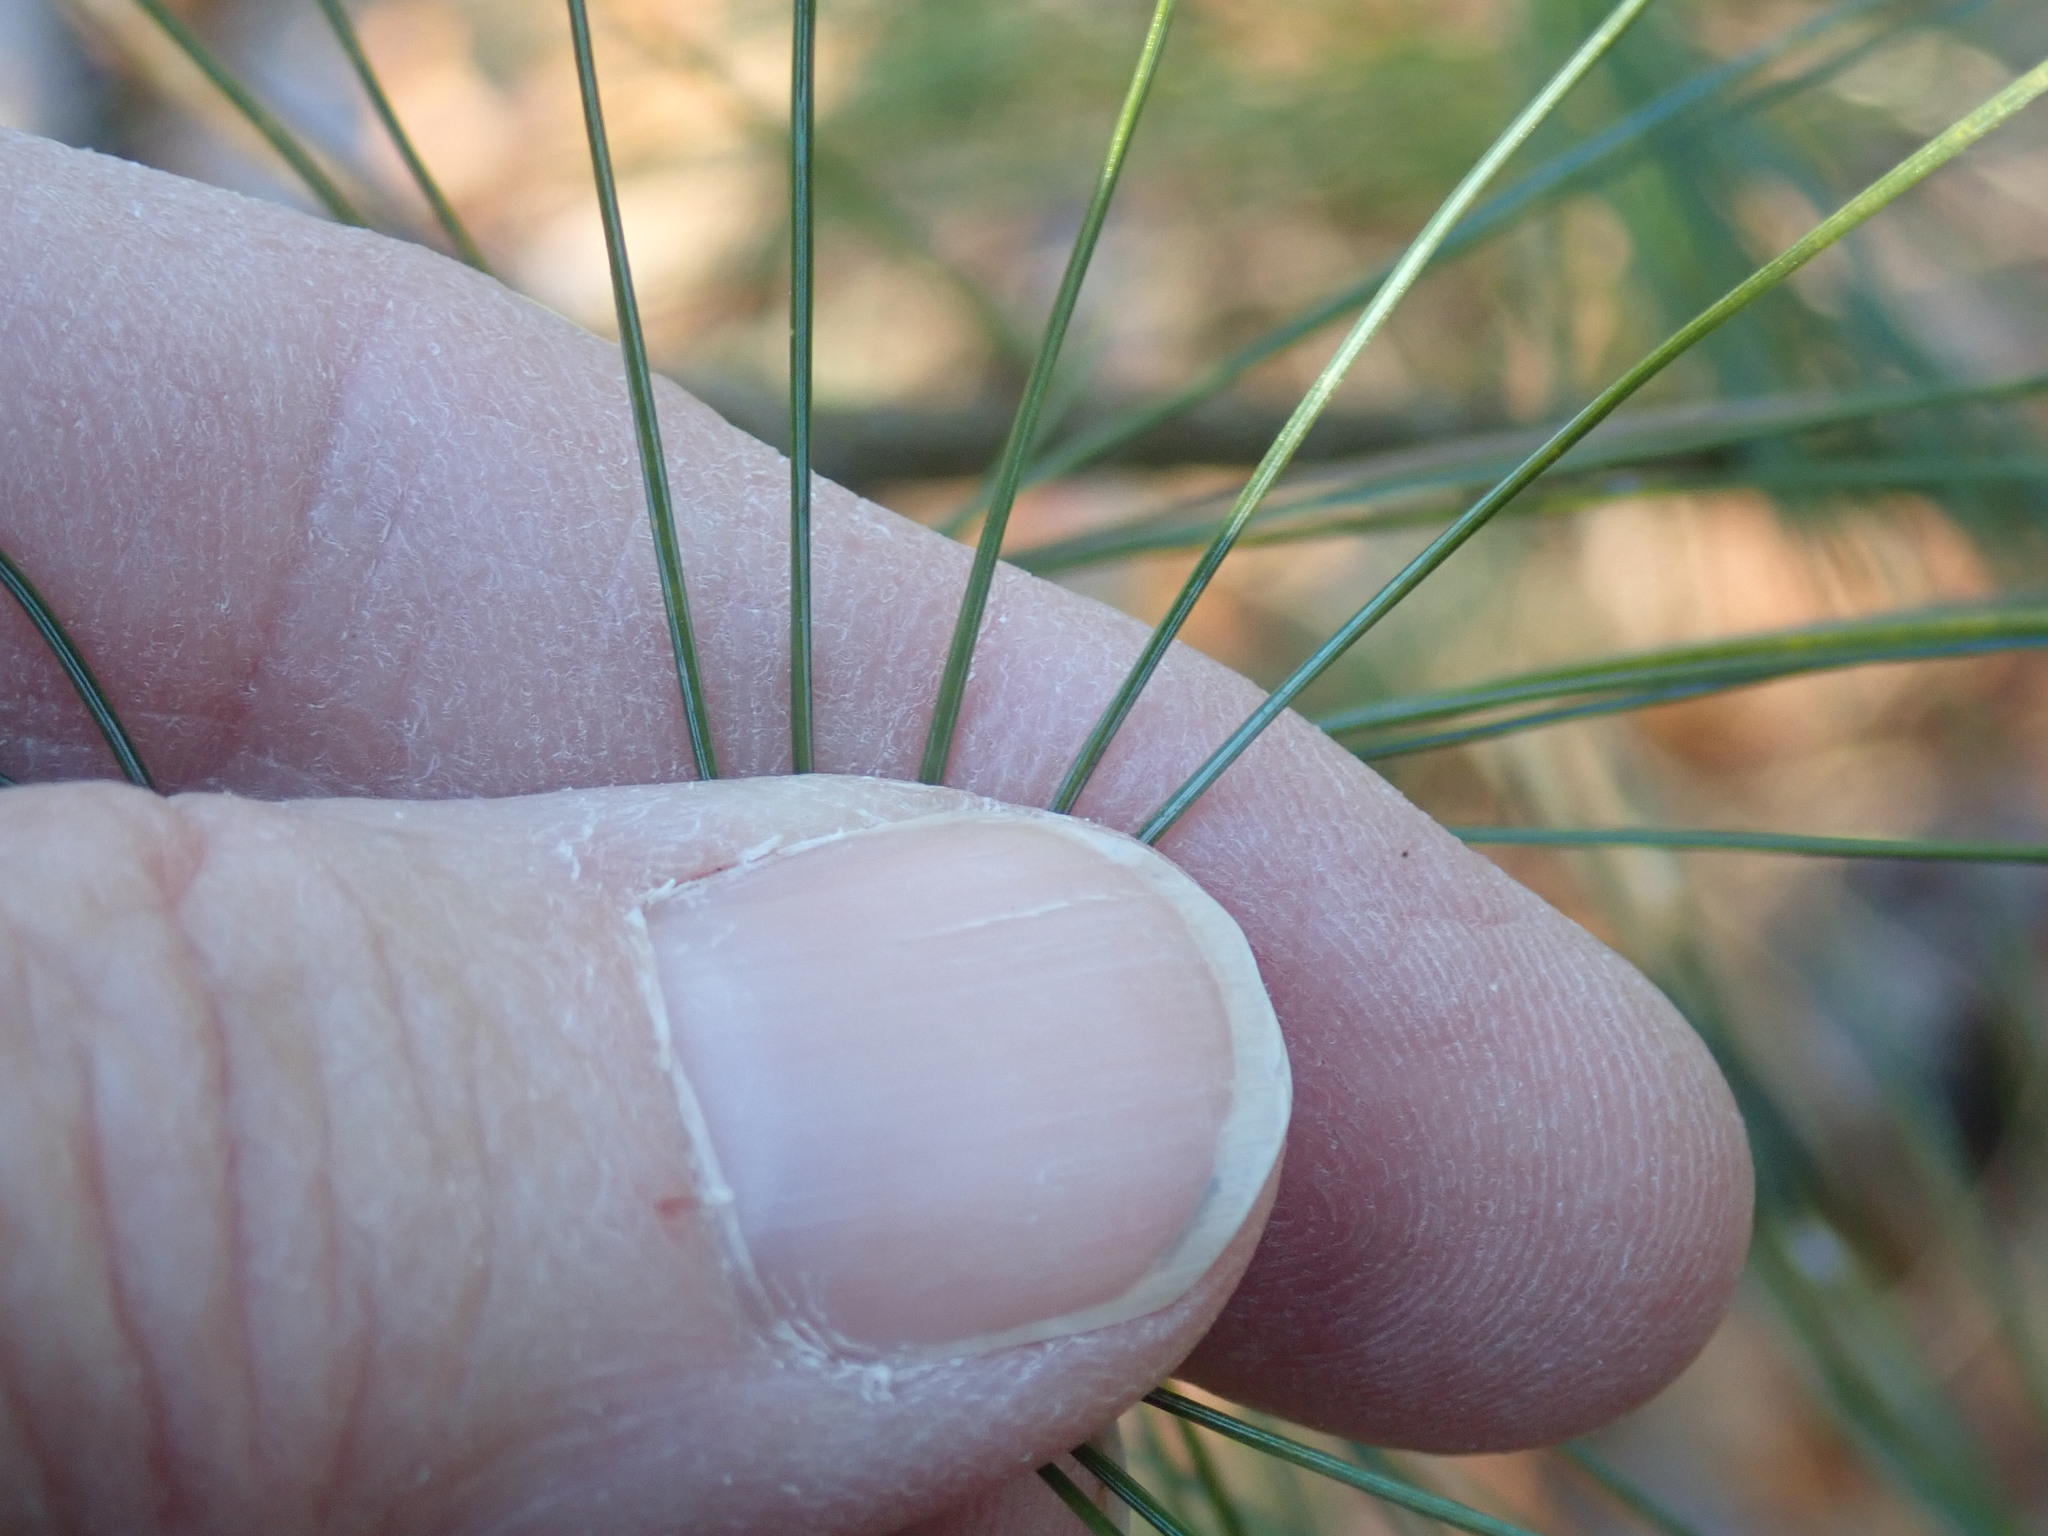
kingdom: Plantae
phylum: Tracheophyta
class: Pinopsida
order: Pinales
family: Pinaceae
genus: Pinus
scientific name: Pinus strobus
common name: Weymouth pine
